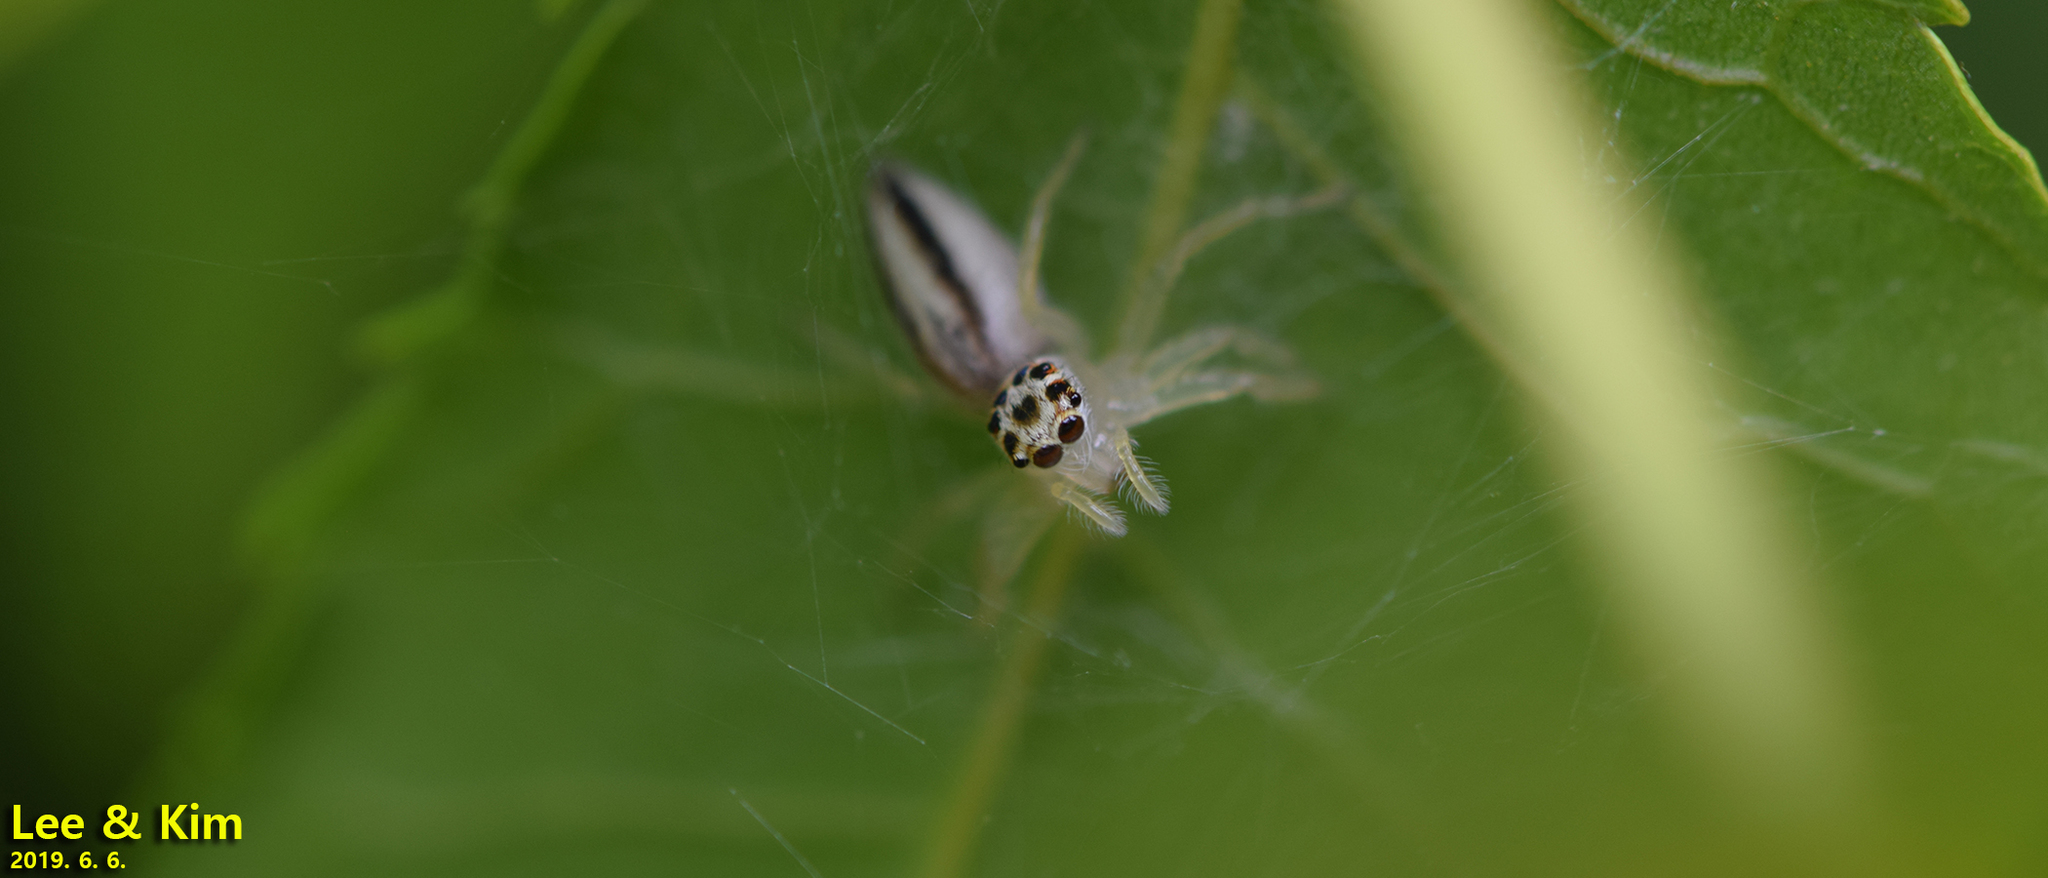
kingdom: Animalia
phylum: Arthropoda
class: Arachnida
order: Araneae
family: Salticidae
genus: Telamonia
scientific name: Telamonia vlijmi
